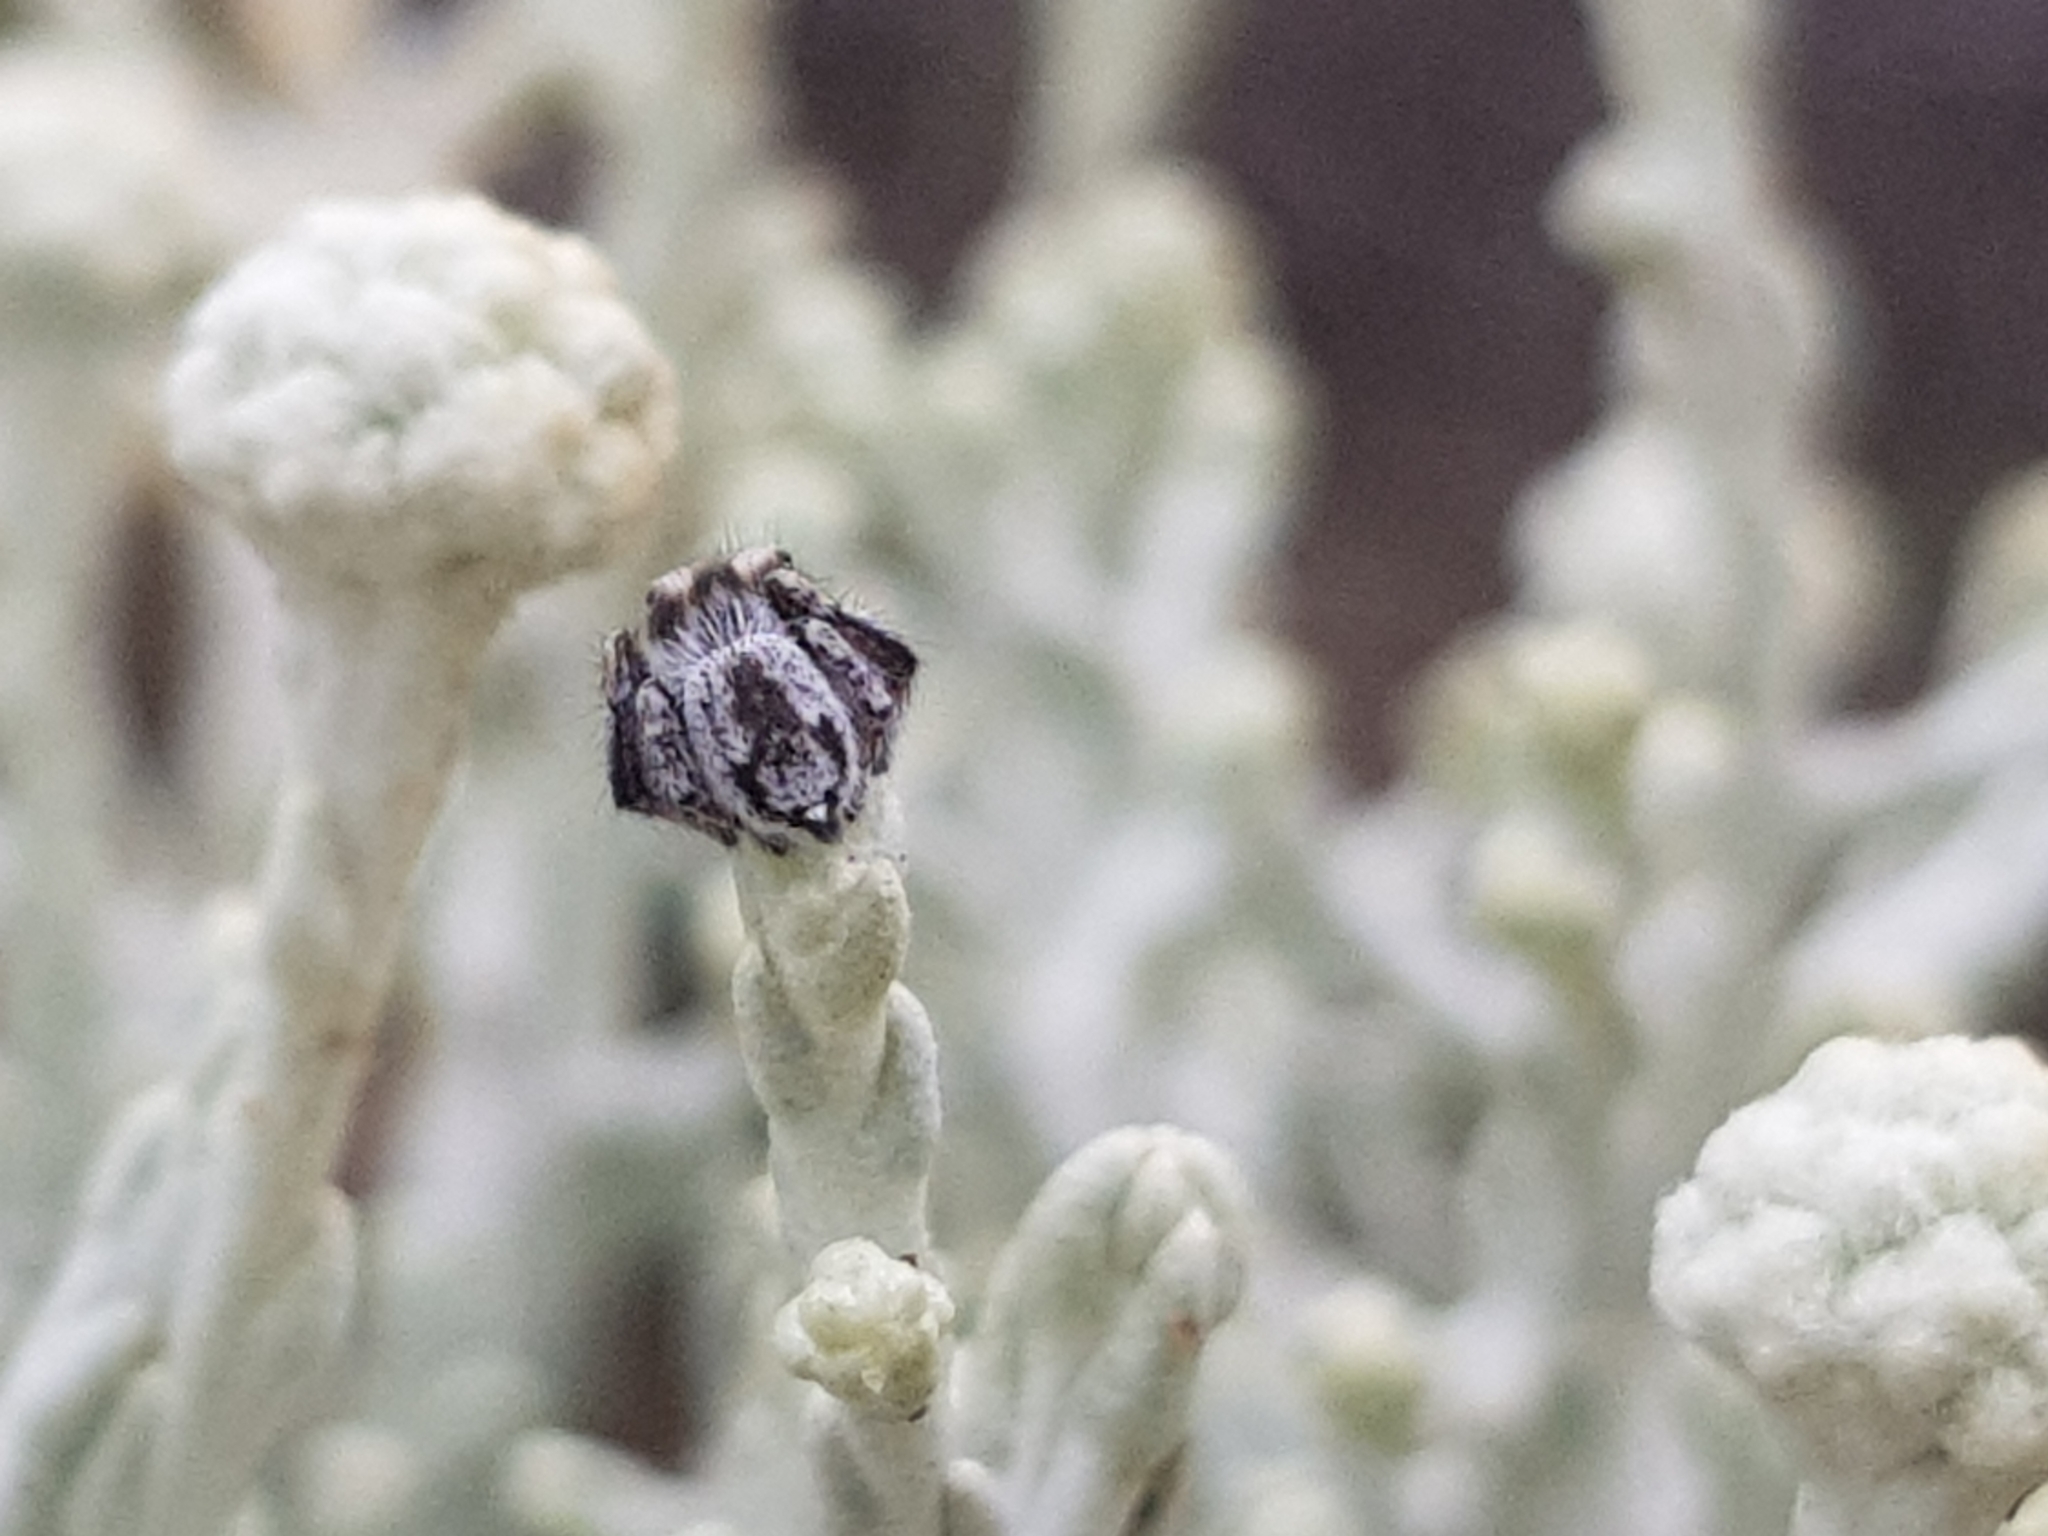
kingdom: Animalia
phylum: Arthropoda
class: Arachnida
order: Araneae
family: Salticidae
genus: Maratus
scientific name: Maratus albus
